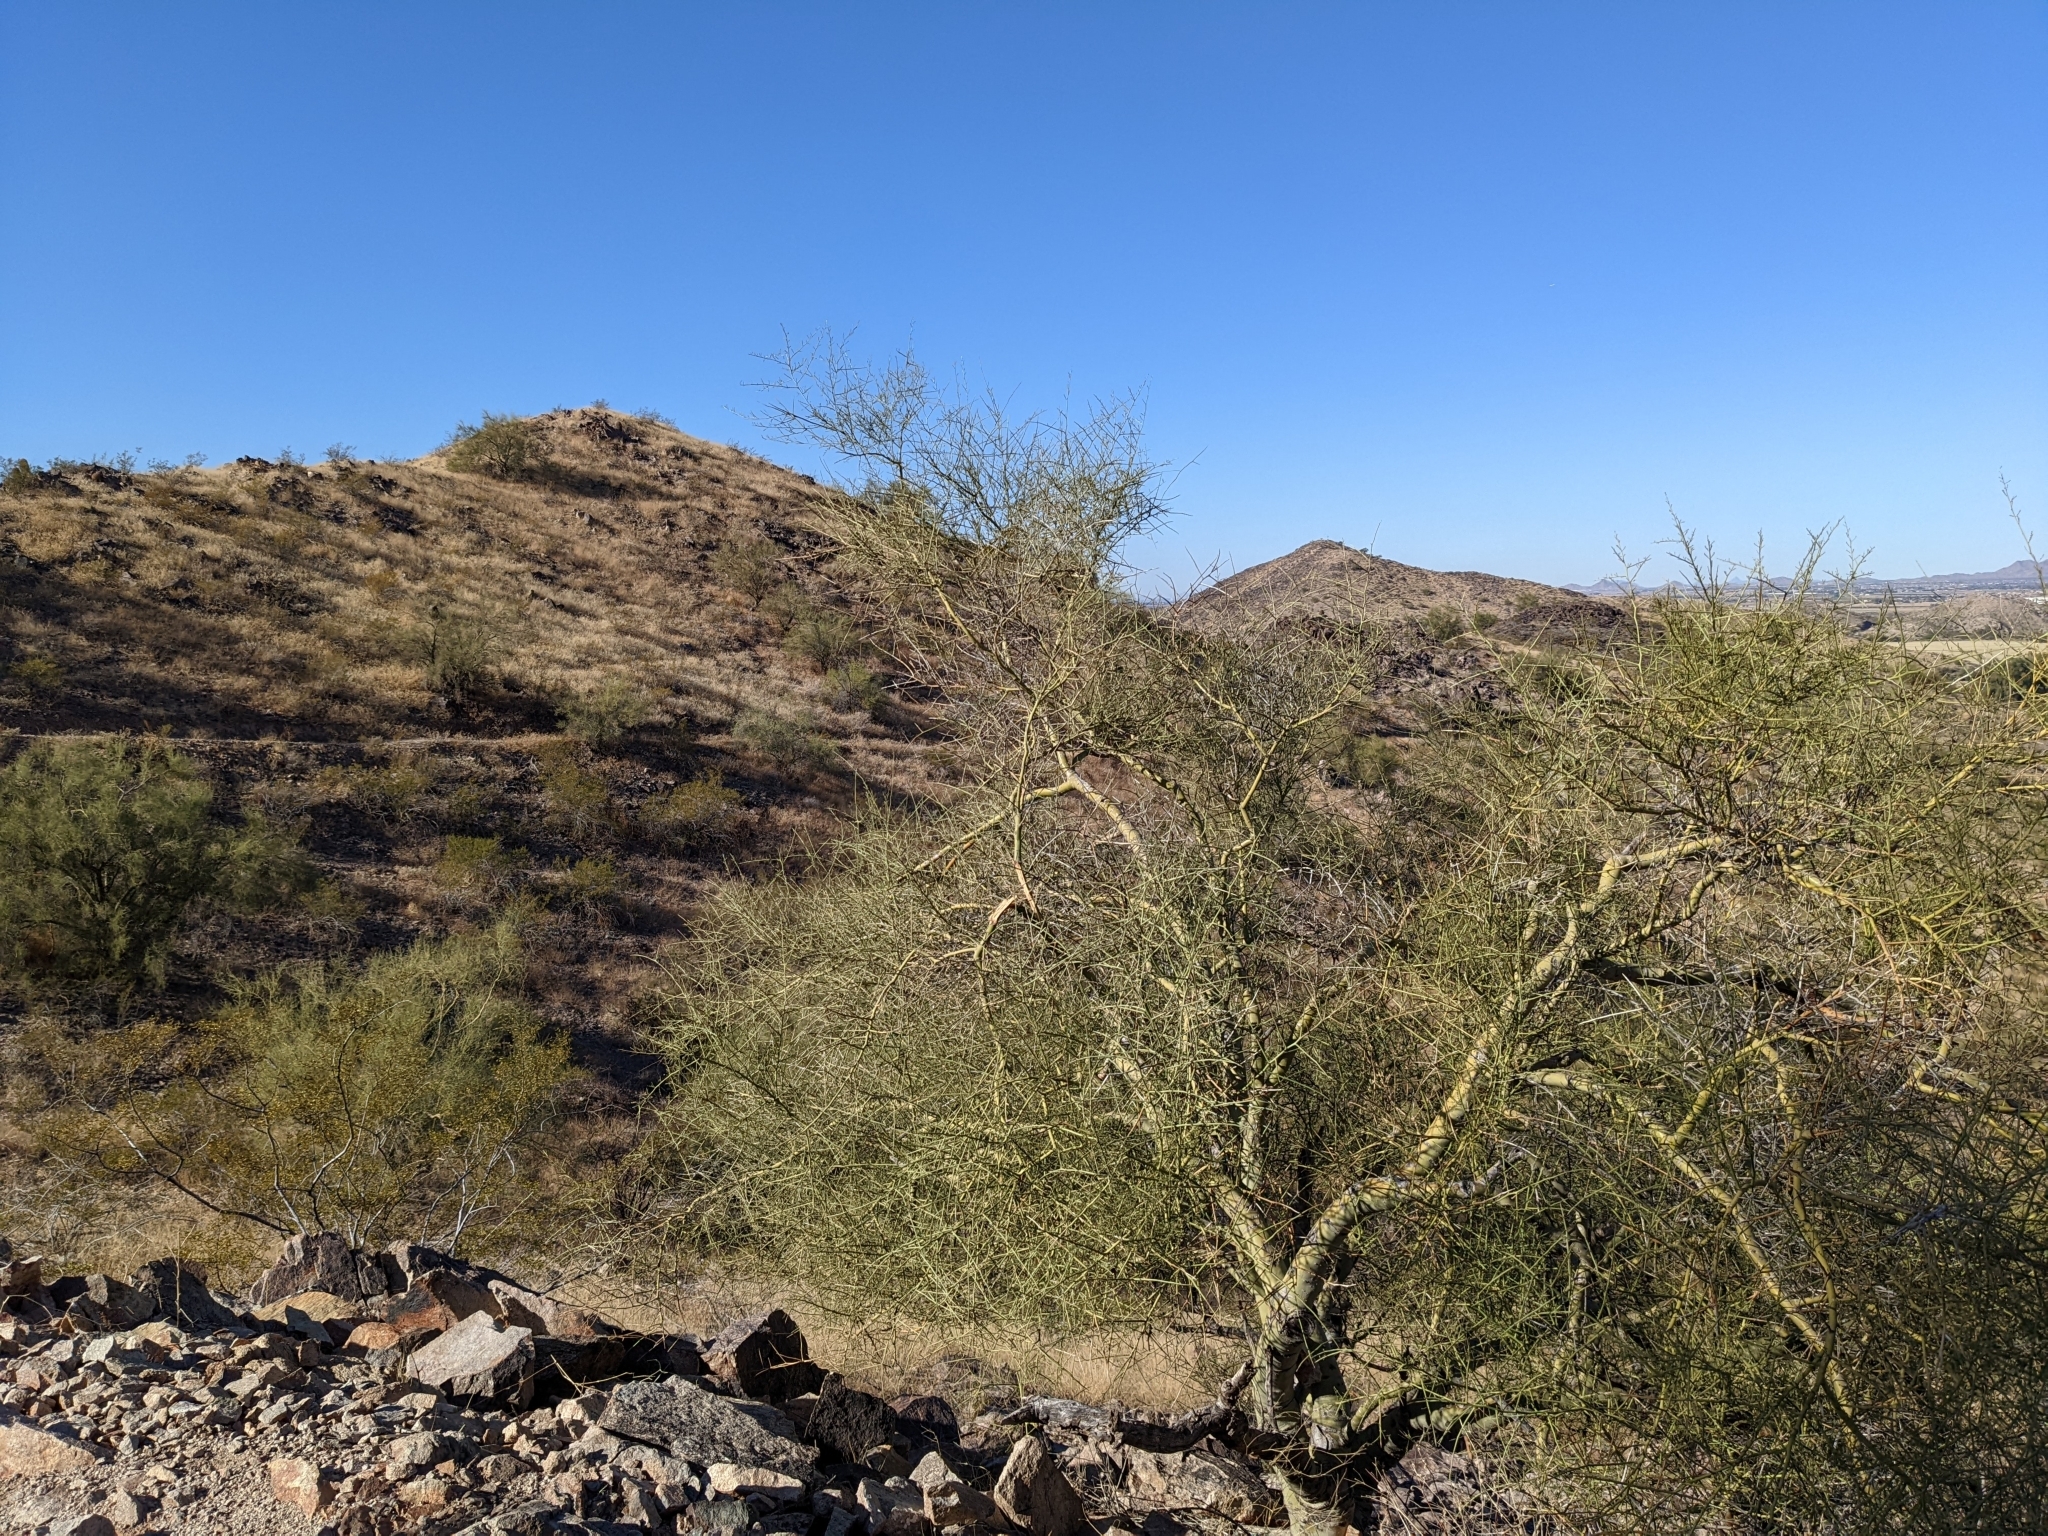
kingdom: Plantae
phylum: Tracheophyta
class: Magnoliopsida
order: Fabales
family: Fabaceae
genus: Parkinsonia
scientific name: Parkinsonia microphylla
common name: Yellow paloverde
